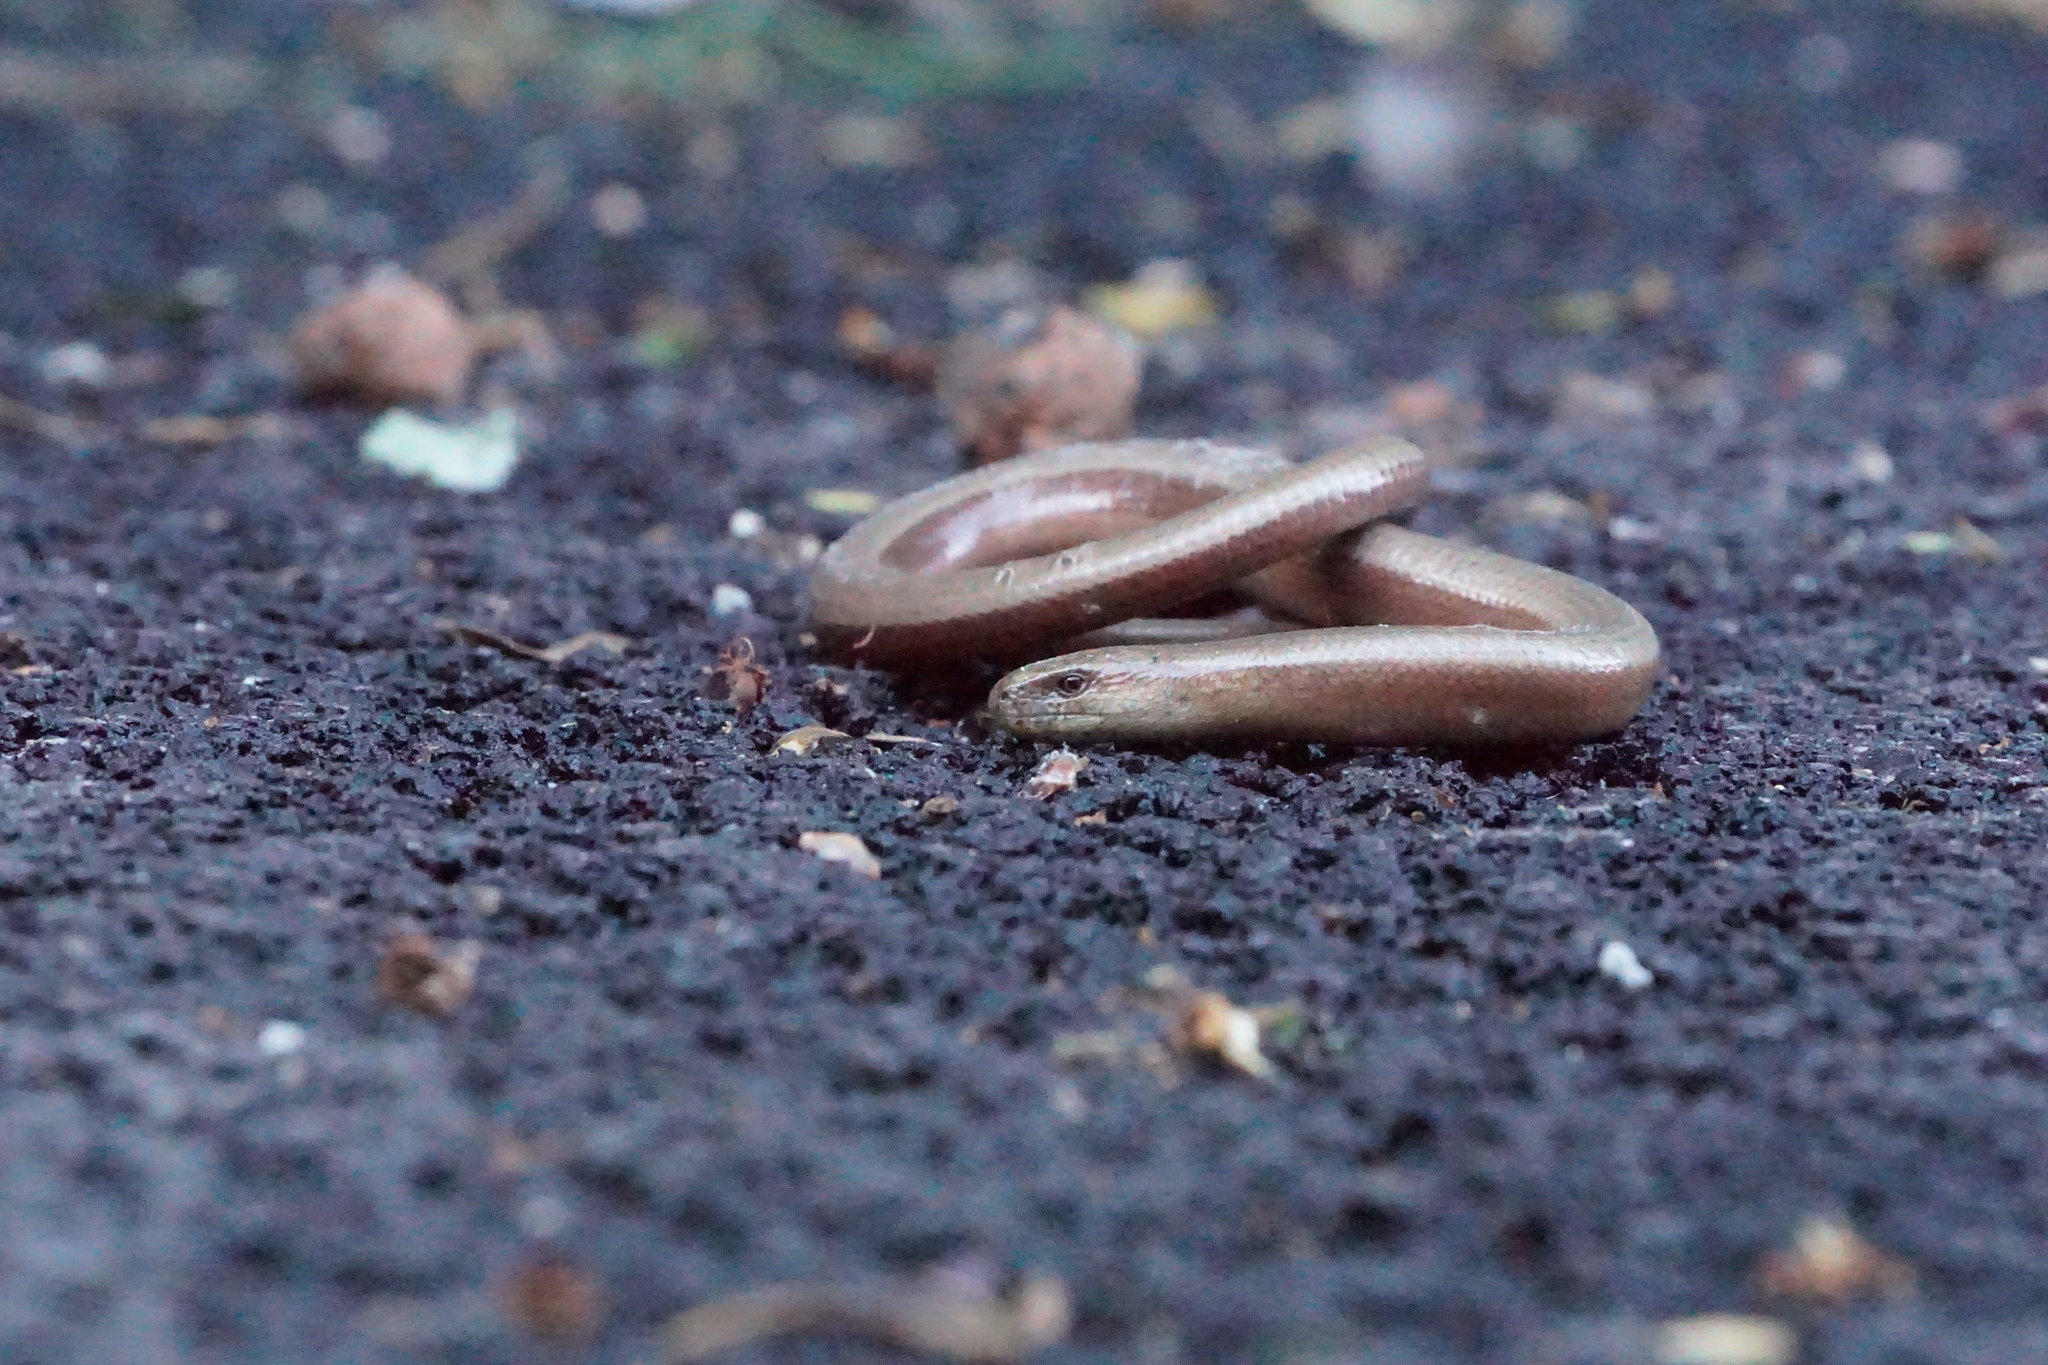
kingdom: Animalia
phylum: Chordata
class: Squamata
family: Anguidae
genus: Anguis
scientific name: Anguis fragilis
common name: Slow worm
